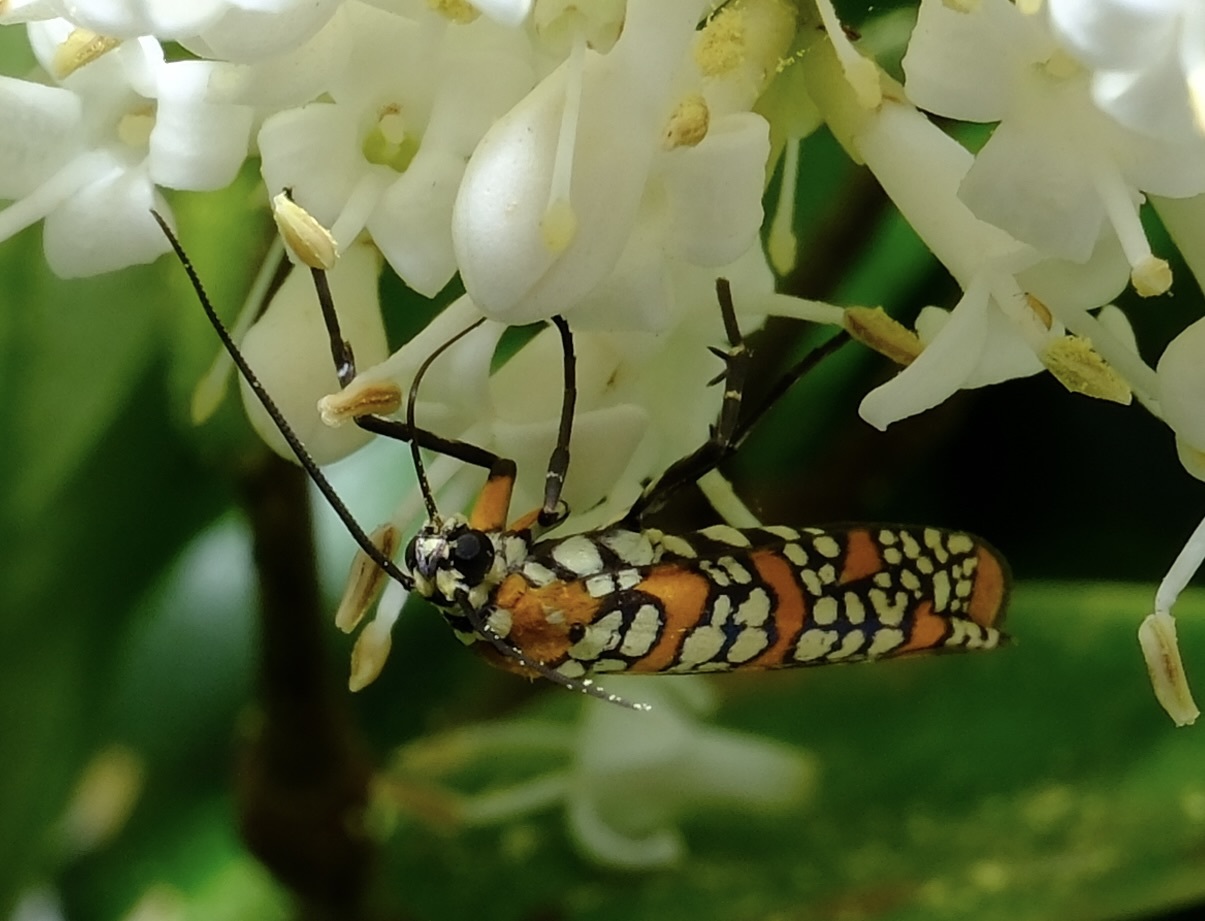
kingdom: Animalia
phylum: Arthropoda
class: Insecta
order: Lepidoptera
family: Attevidae
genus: Atteva
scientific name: Atteva punctella
